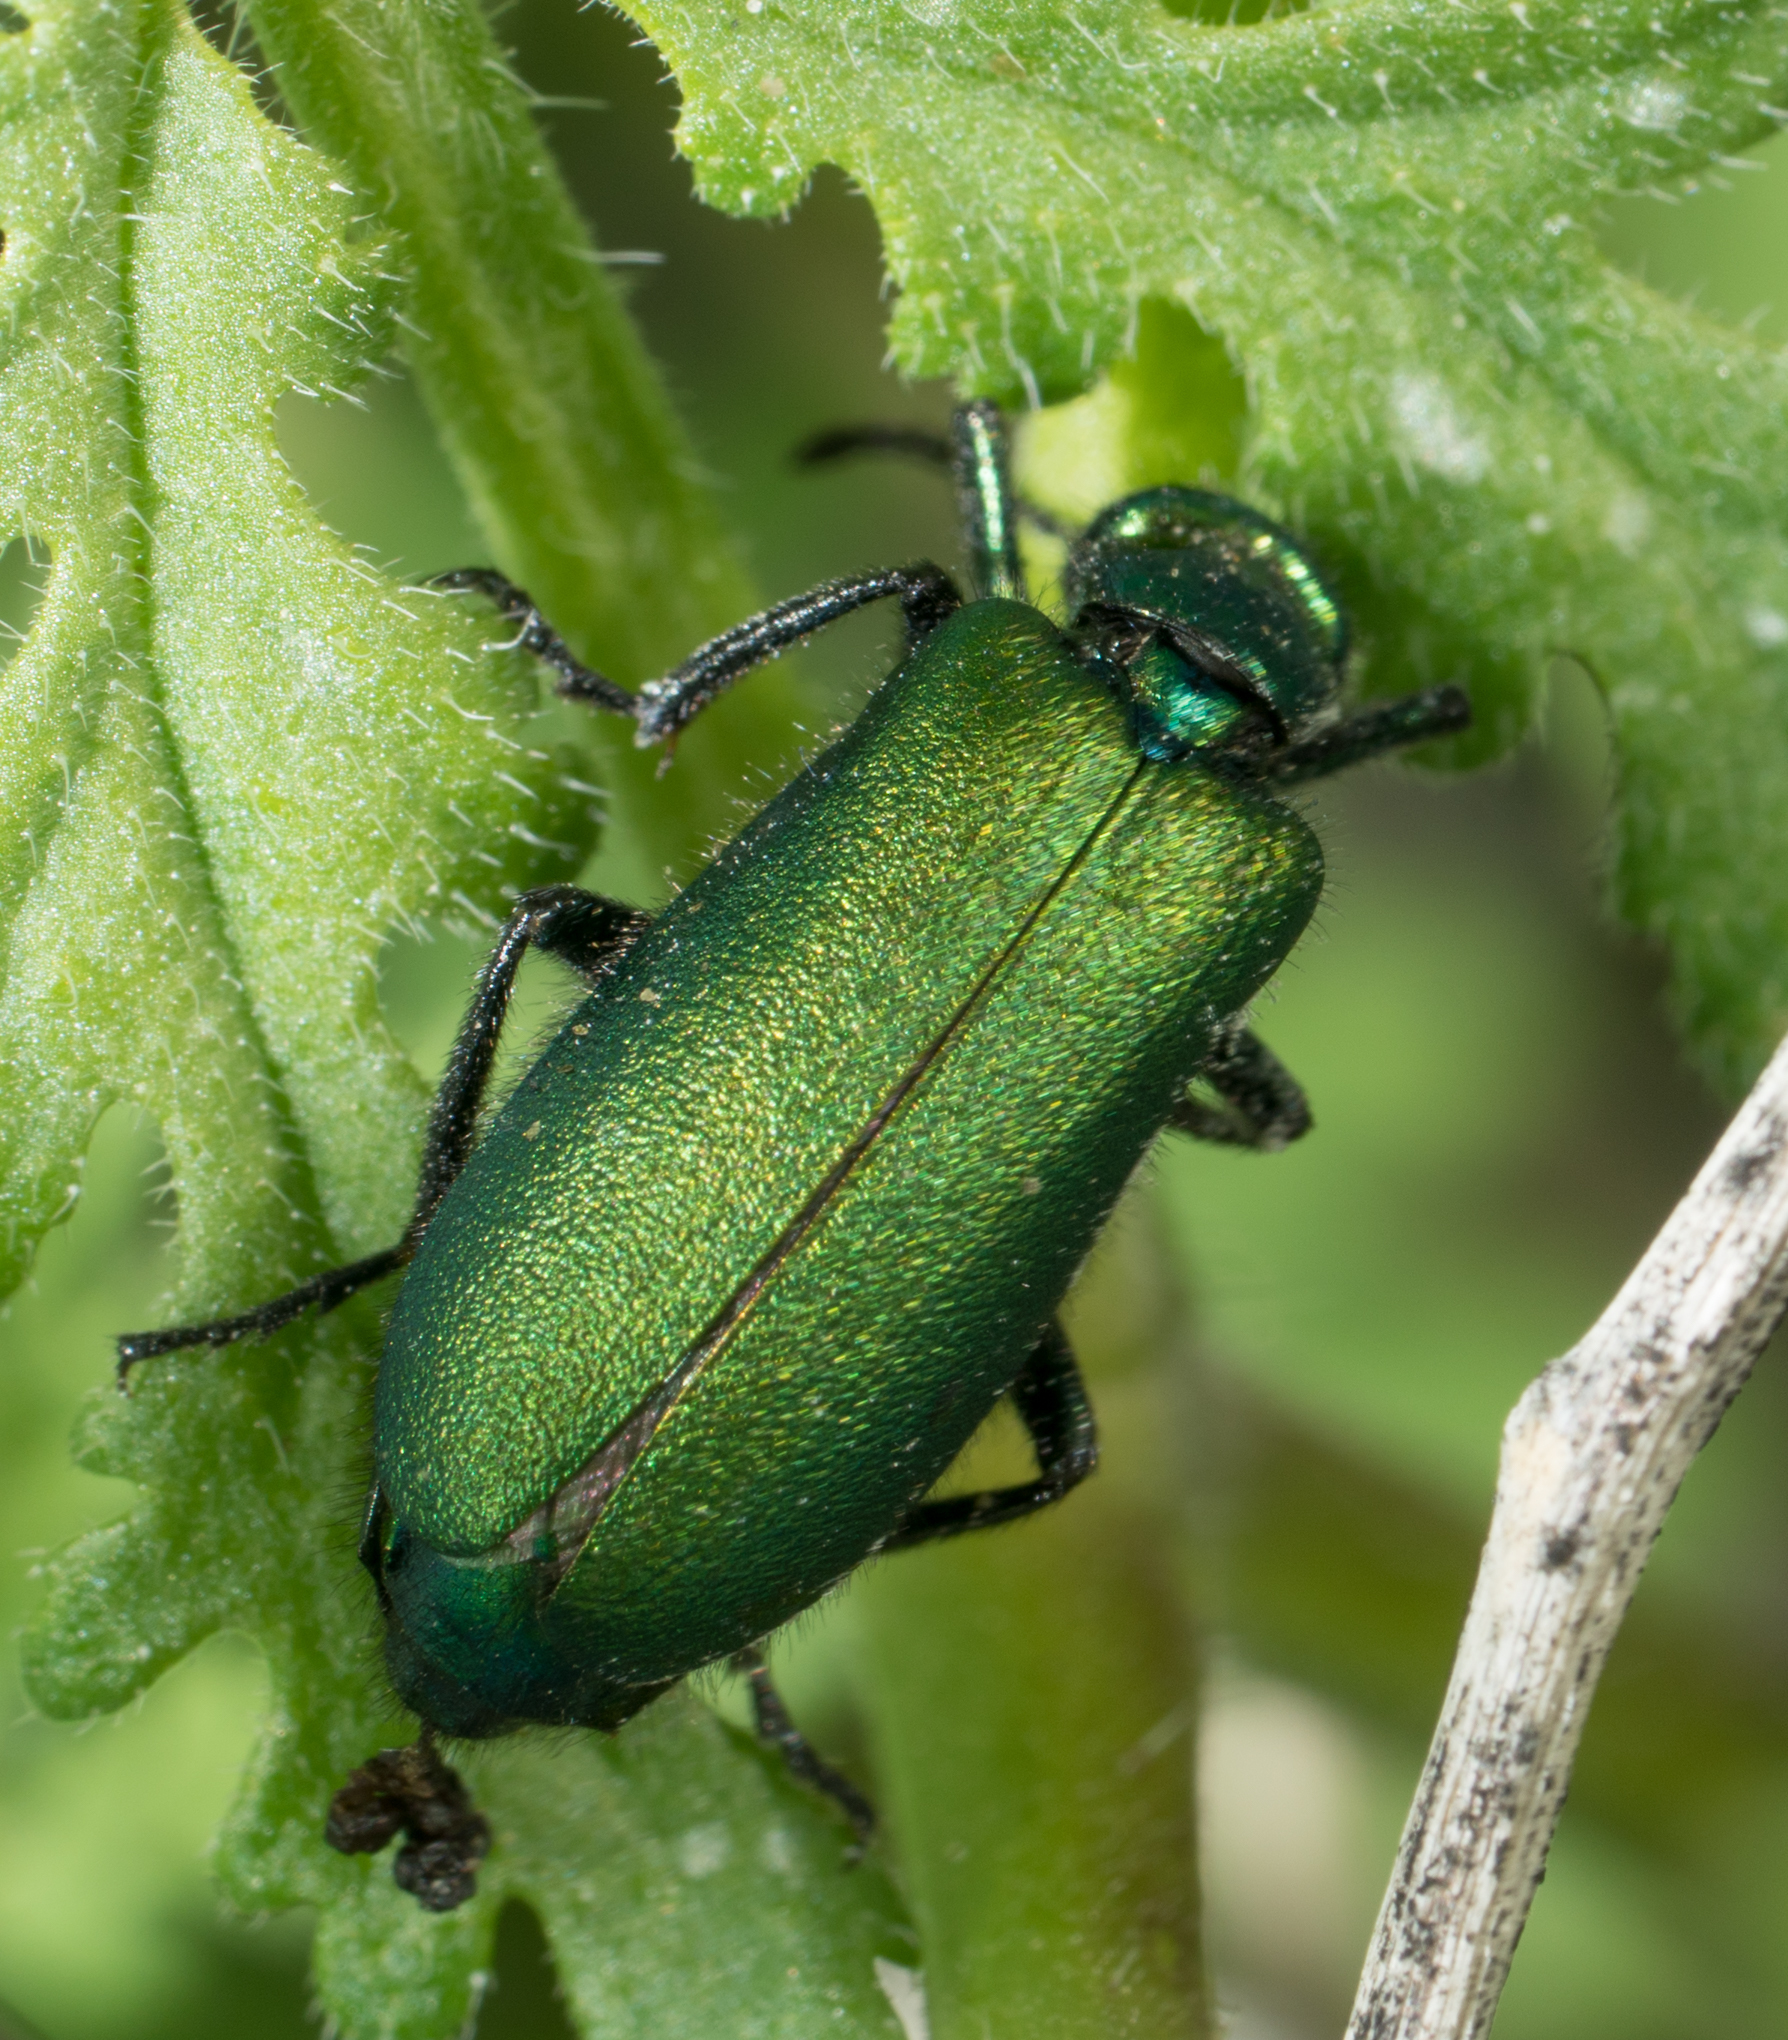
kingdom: Animalia
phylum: Arthropoda
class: Insecta
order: Coleoptera
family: Meloidae
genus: Lytta
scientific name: Lytta stygica
